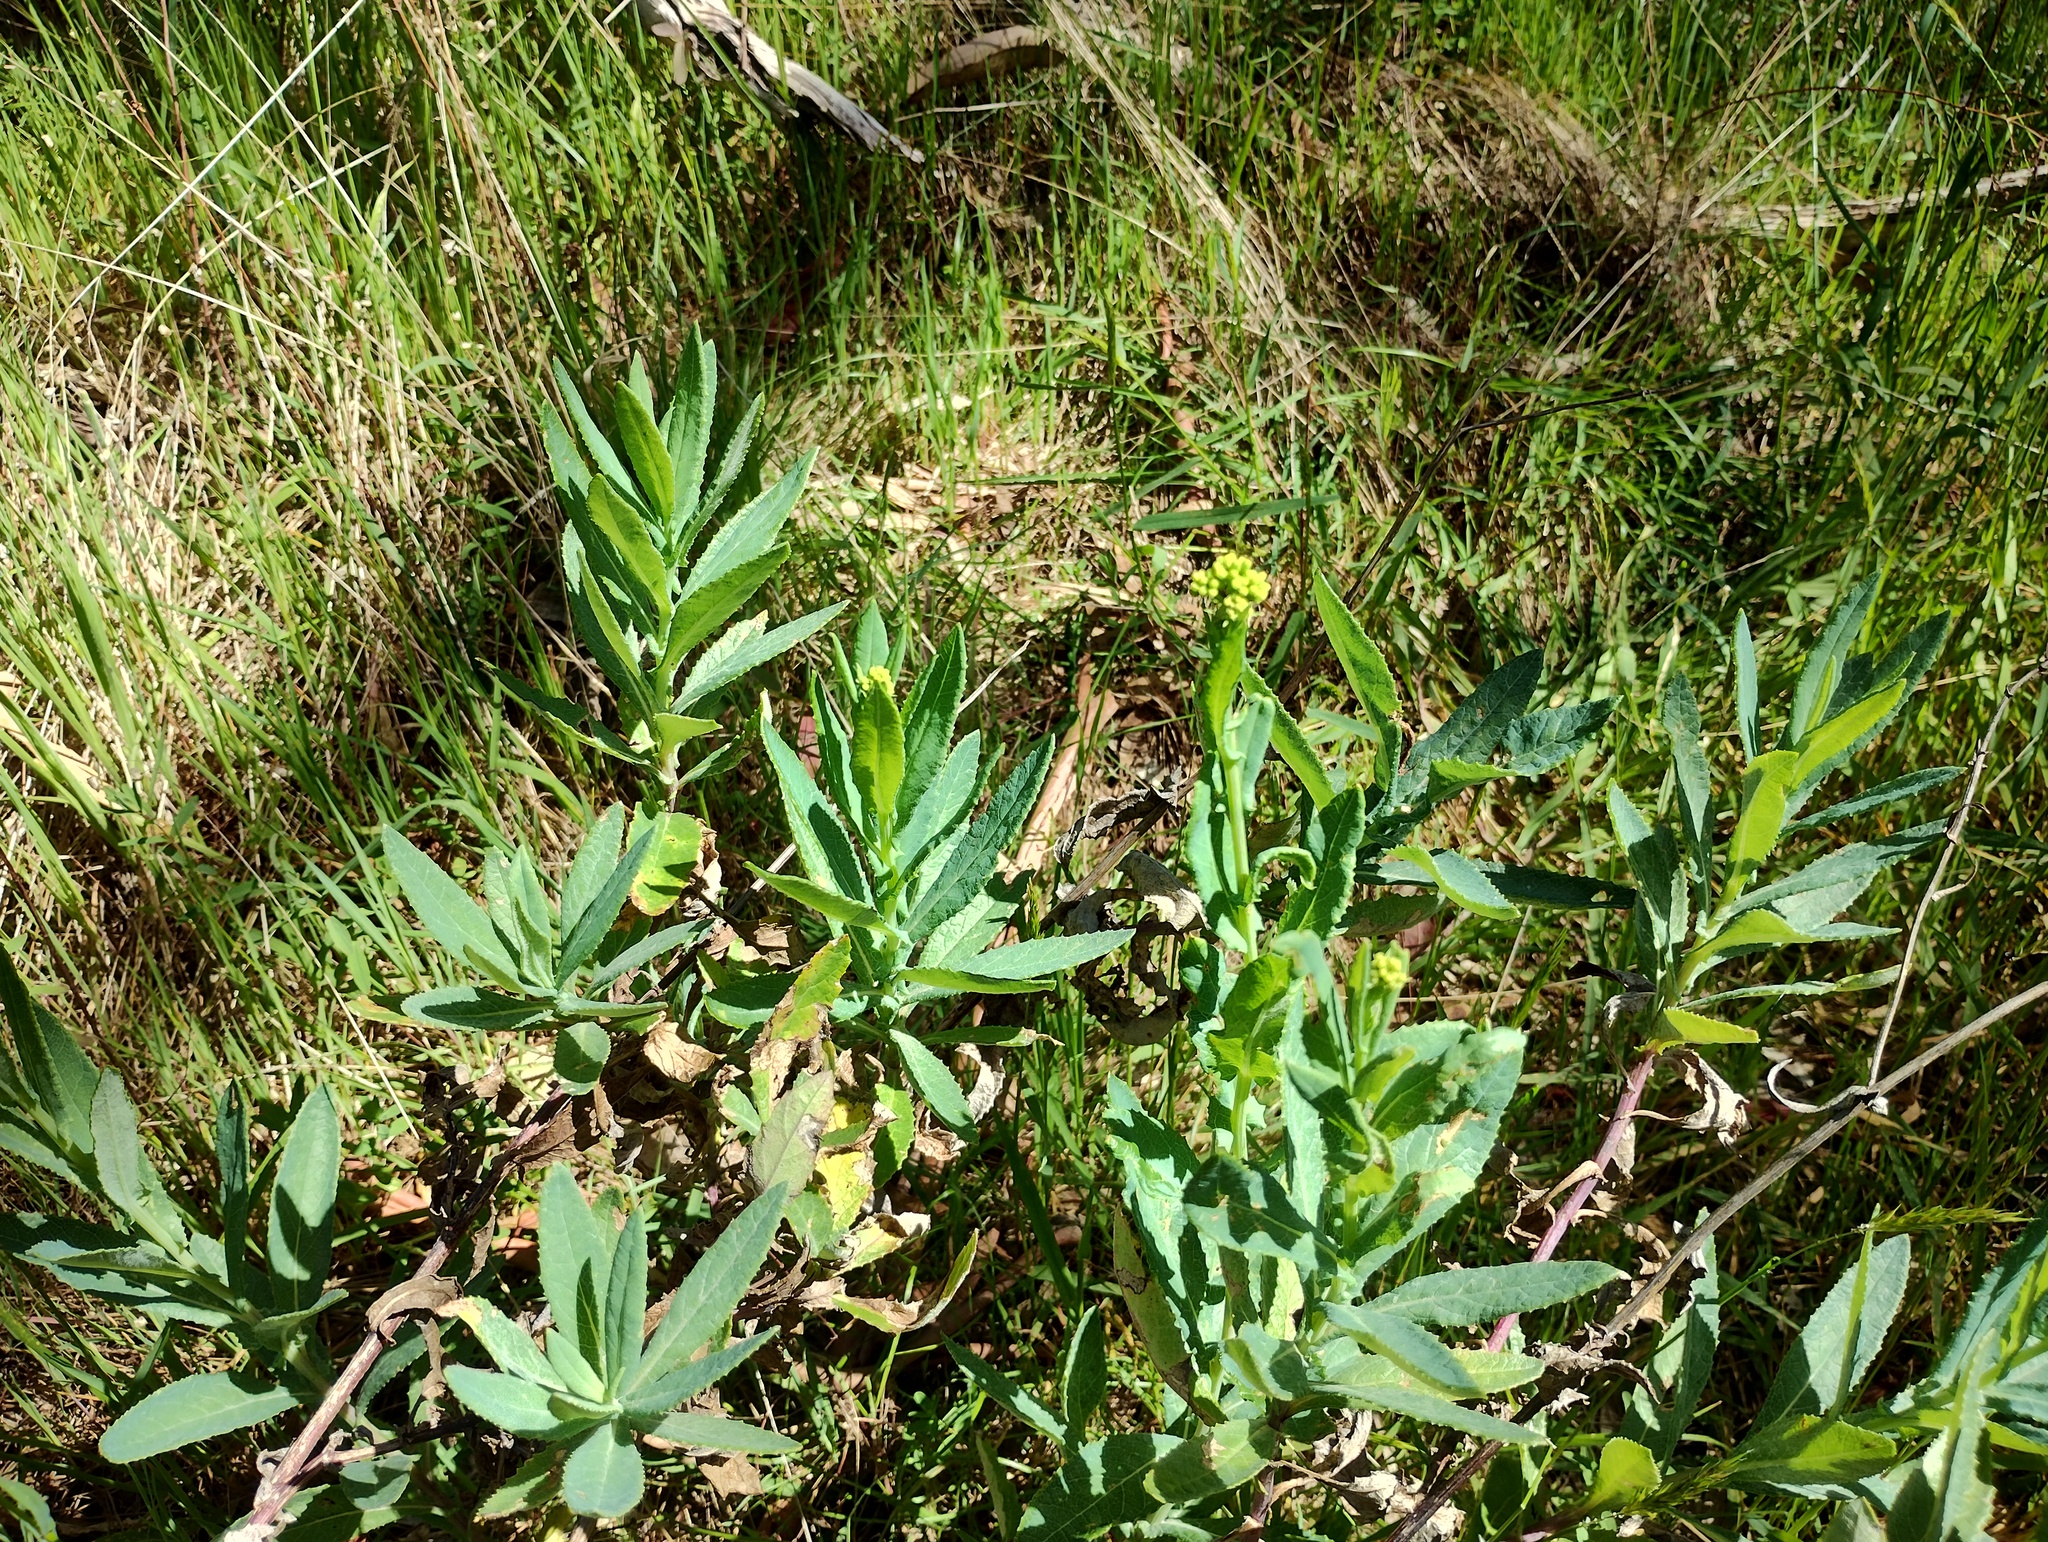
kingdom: Plantae
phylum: Tracheophyta
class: Magnoliopsida
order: Asterales
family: Asteraceae
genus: Senecio
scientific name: Senecio odoratus
